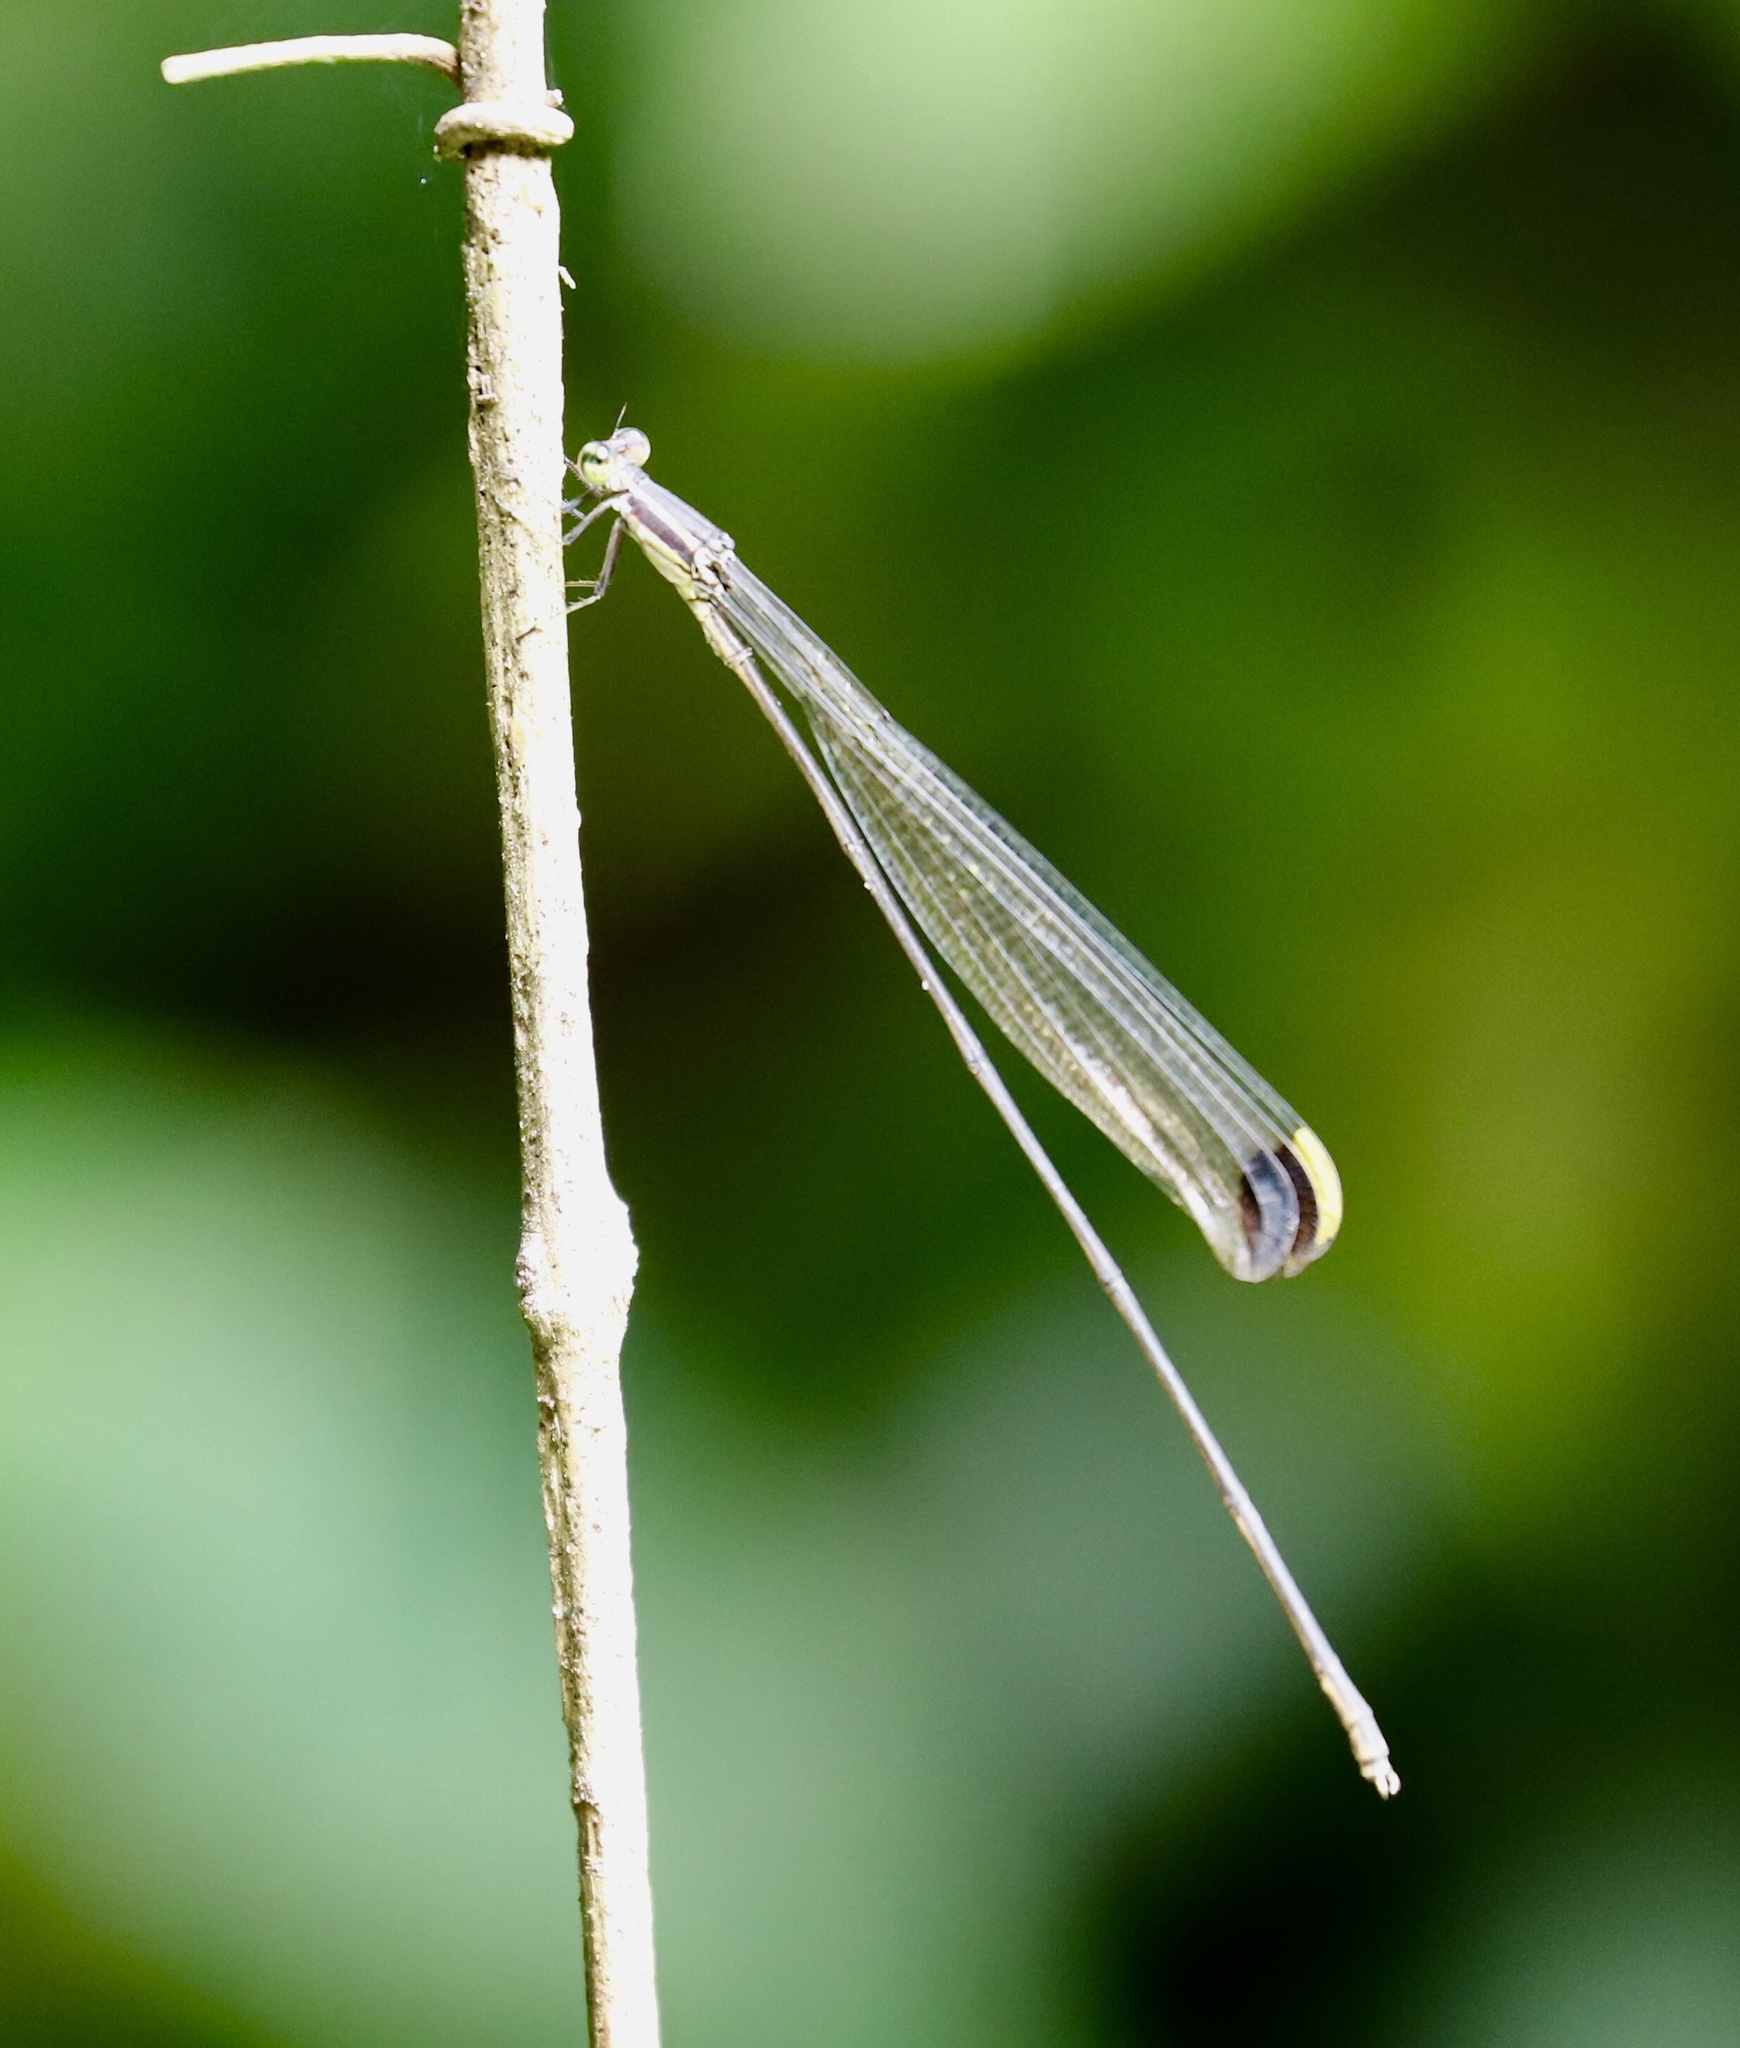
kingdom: Animalia
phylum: Arthropoda
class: Insecta
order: Odonata
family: Coenagrionidae
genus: Mecistogaster
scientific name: Mecistogaster ornata
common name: Ornate helicopter
